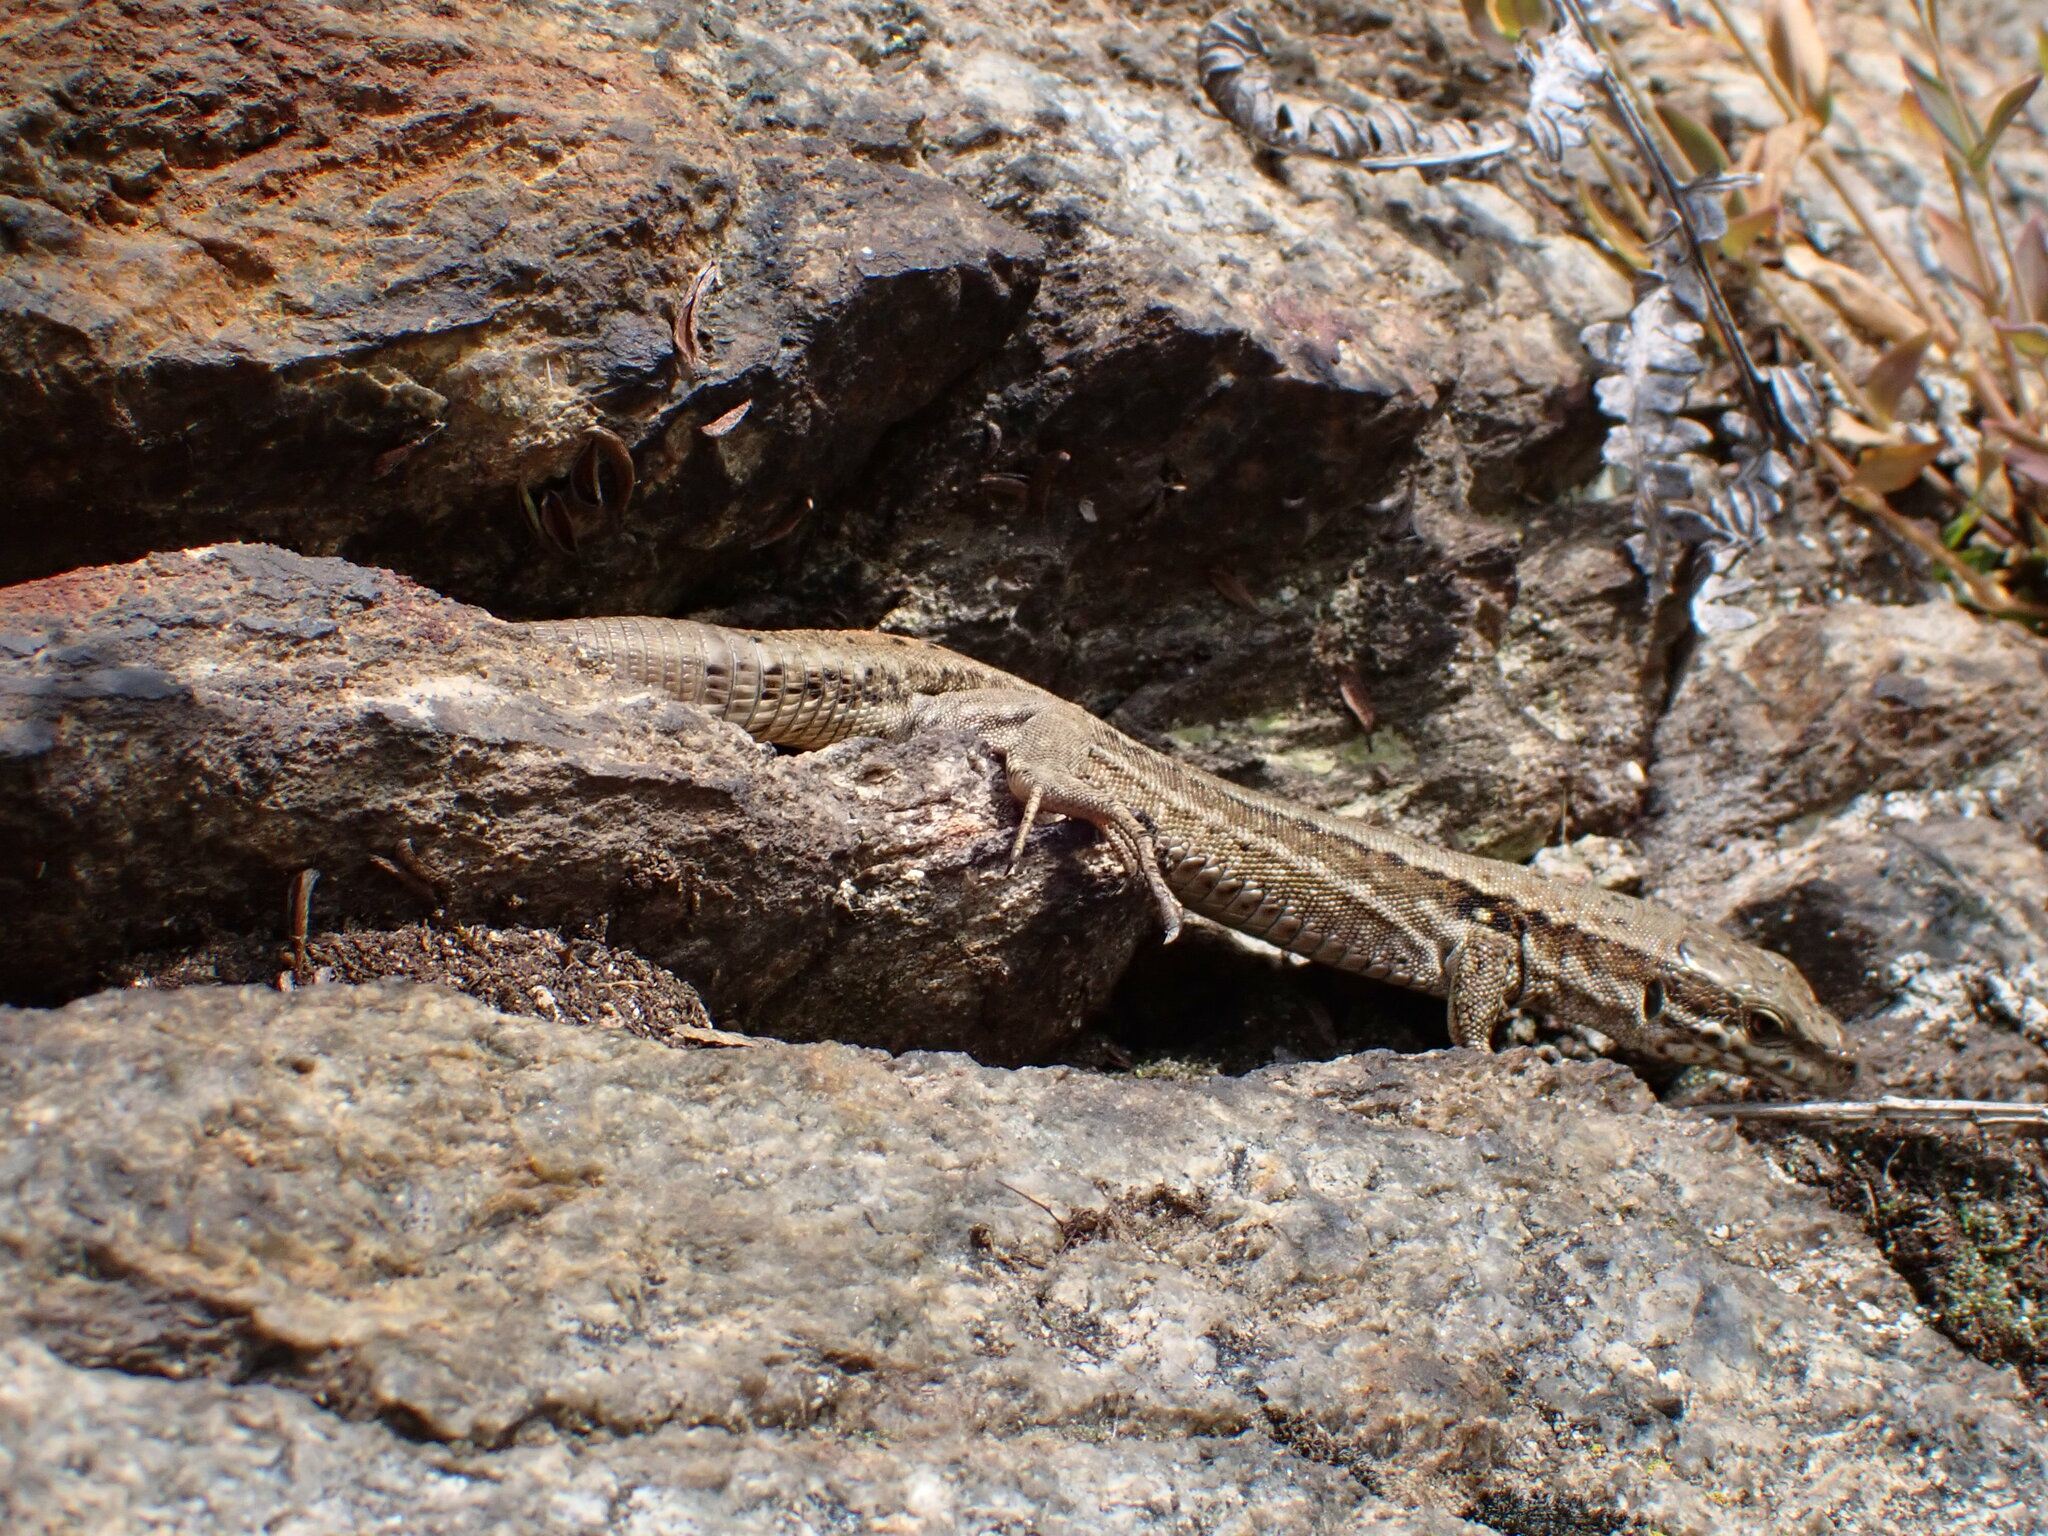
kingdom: Animalia
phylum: Chordata
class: Squamata
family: Lacertidae
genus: Podarcis
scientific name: Podarcis muralis
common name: Common wall lizard
